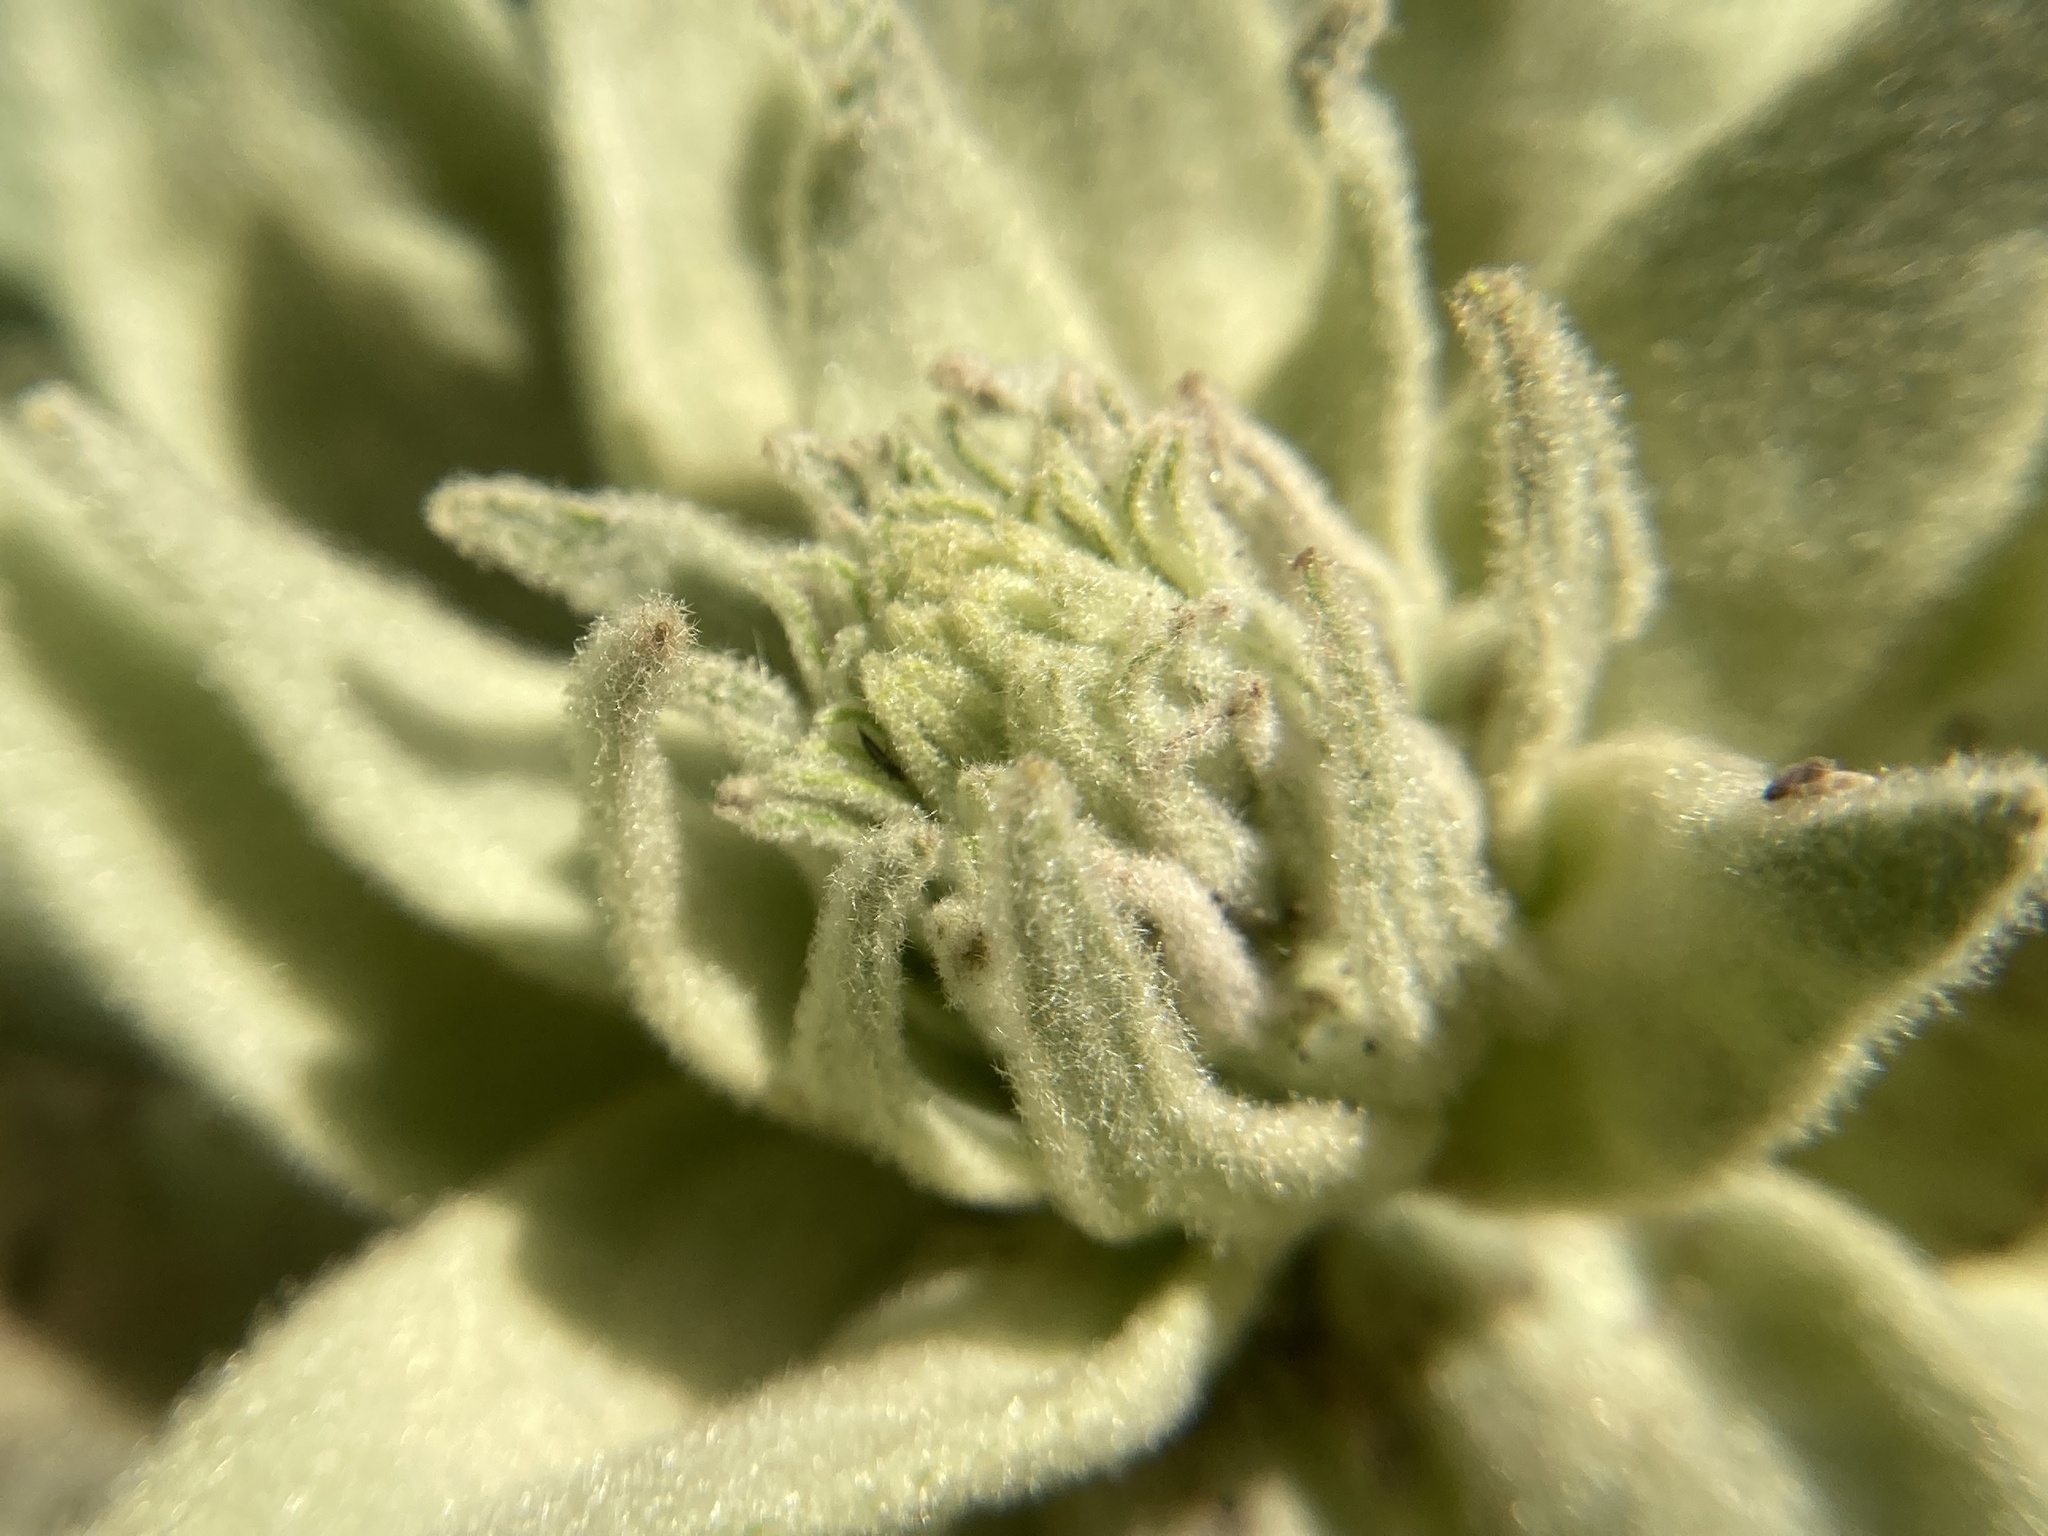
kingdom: Plantae
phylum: Tracheophyta
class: Magnoliopsida
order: Lamiales
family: Scrophulariaceae
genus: Verbascum
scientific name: Verbascum thapsus
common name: Common mullein
